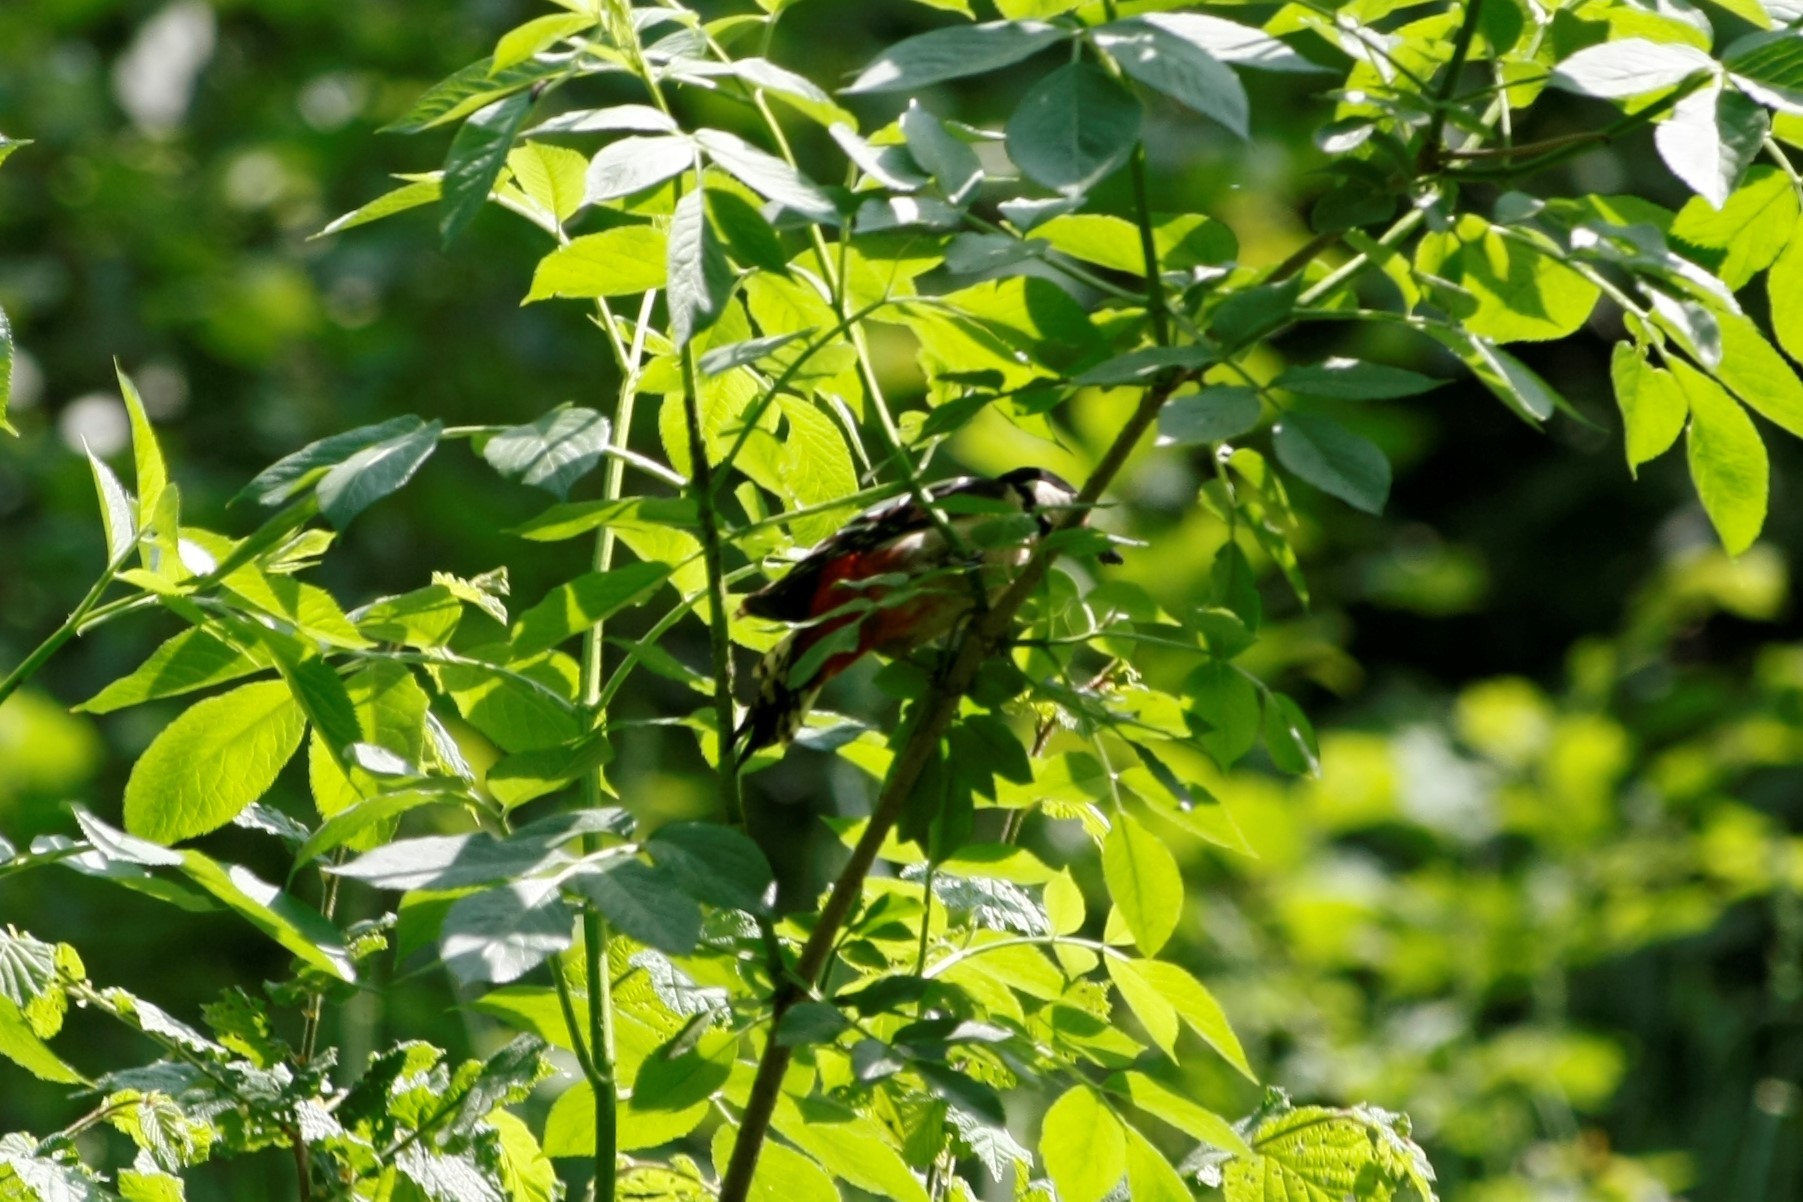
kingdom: Animalia
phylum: Chordata
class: Aves
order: Piciformes
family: Picidae
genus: Dendrocopos
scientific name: Dendrocopos major
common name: Great spotted woodpecker
